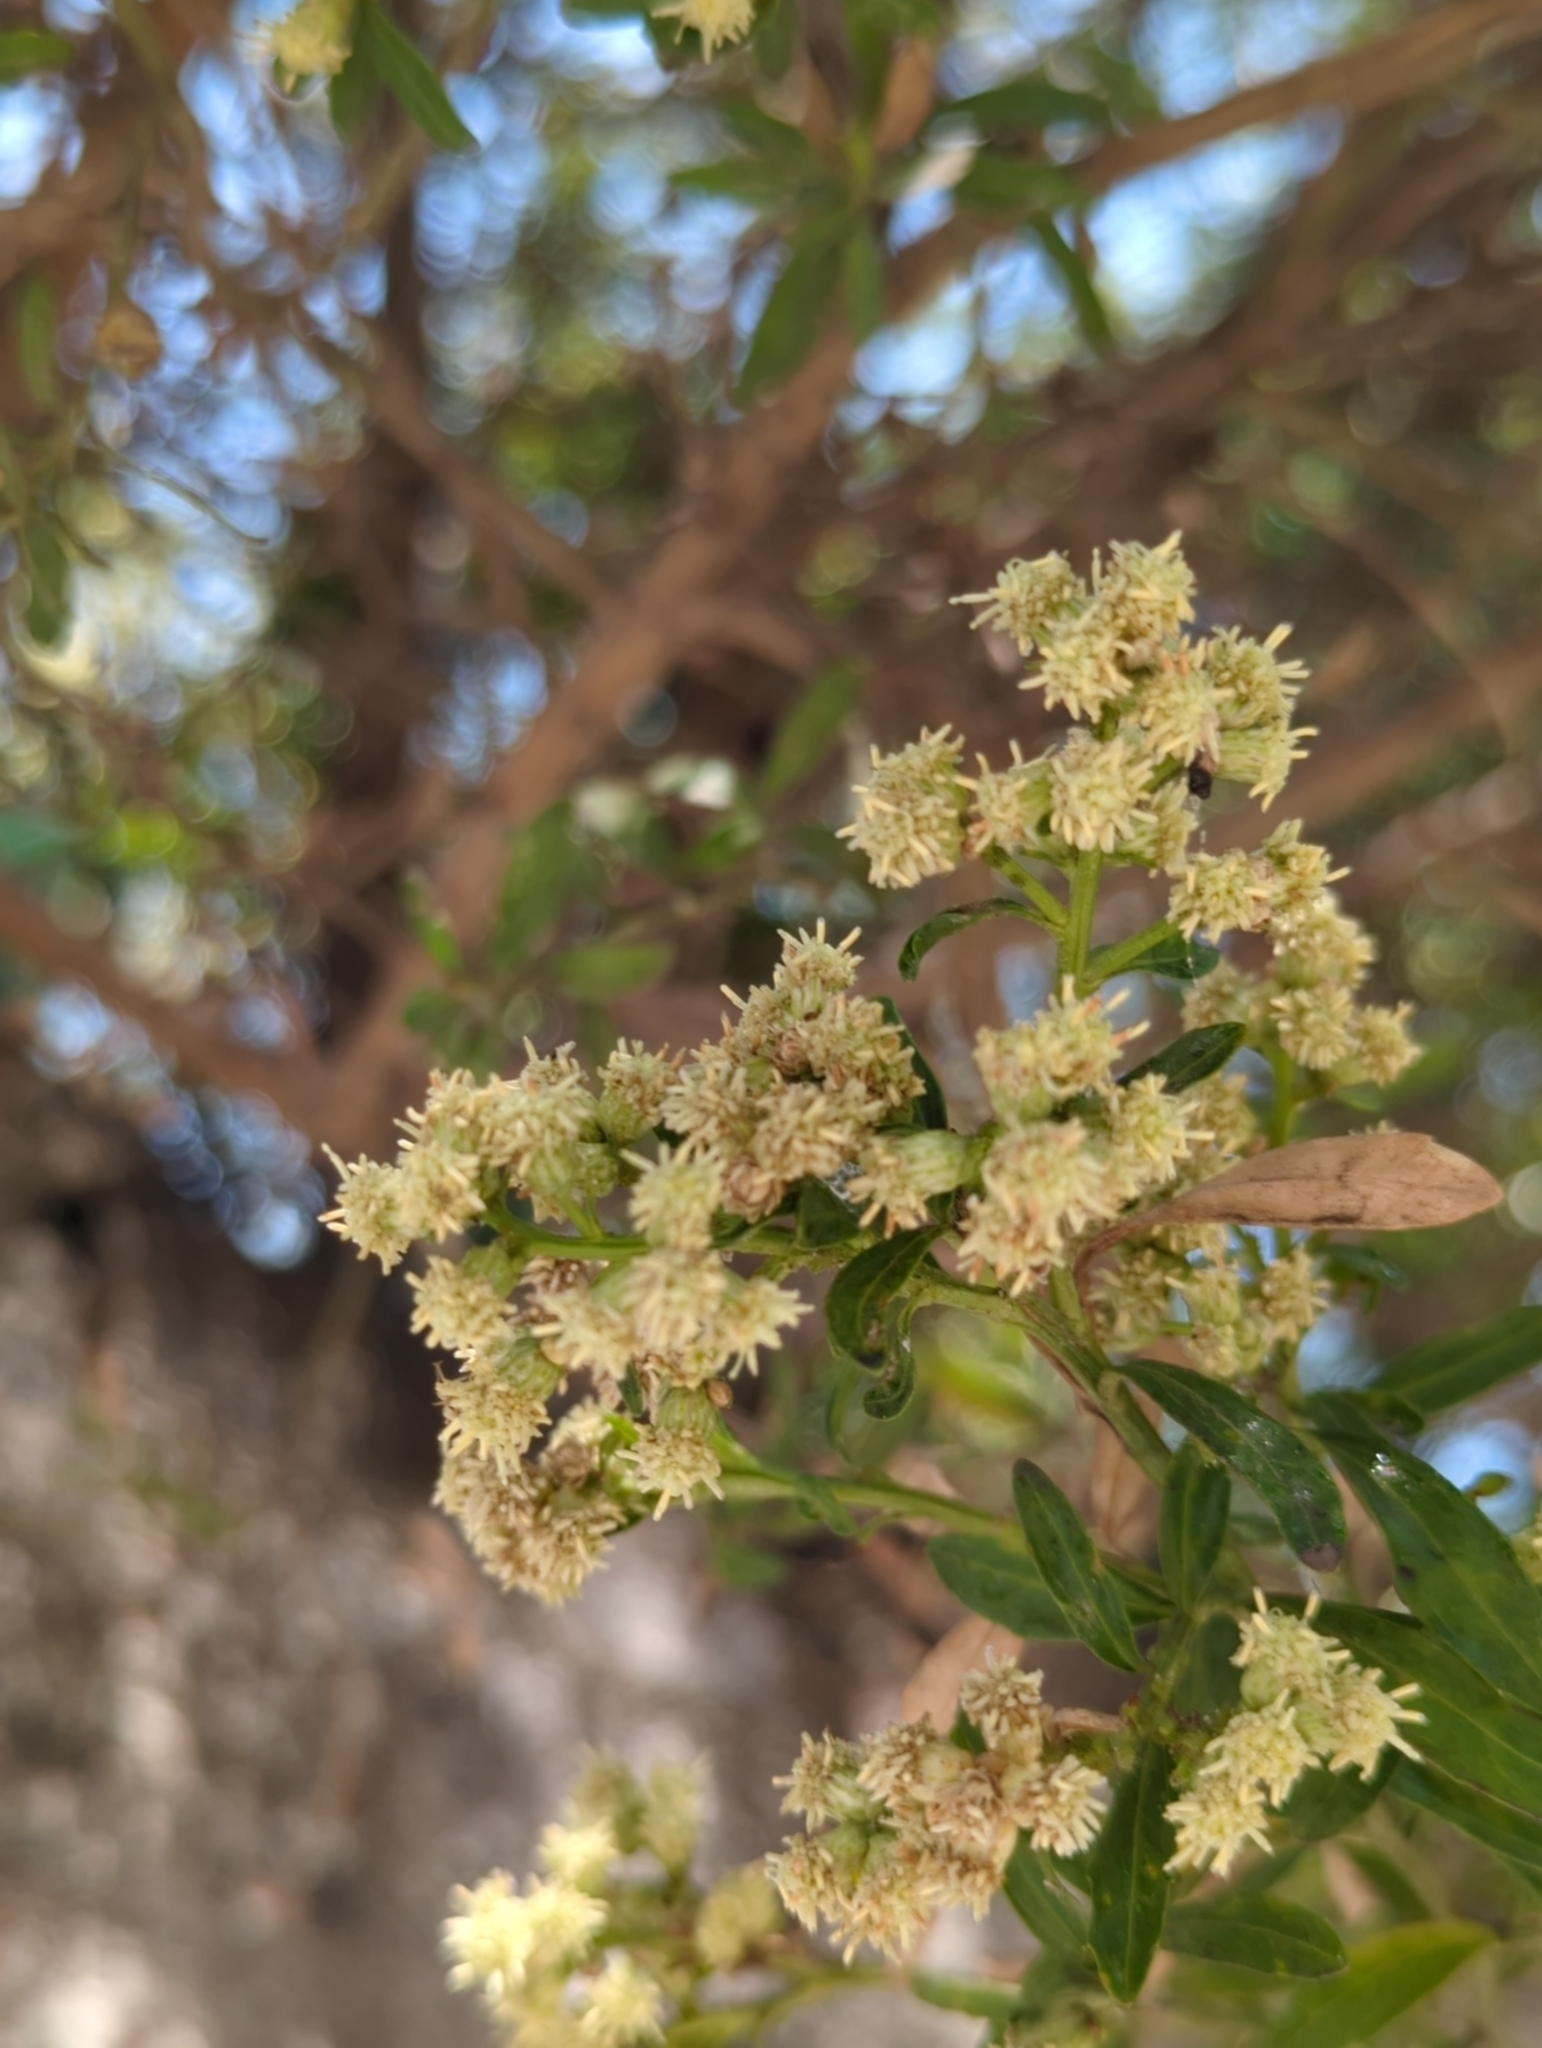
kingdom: Plantae
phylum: Tracheophyta
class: Magnoliopsida
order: Asterales
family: Asteraceae
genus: Baccharis
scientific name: Baccharis heterophylla
